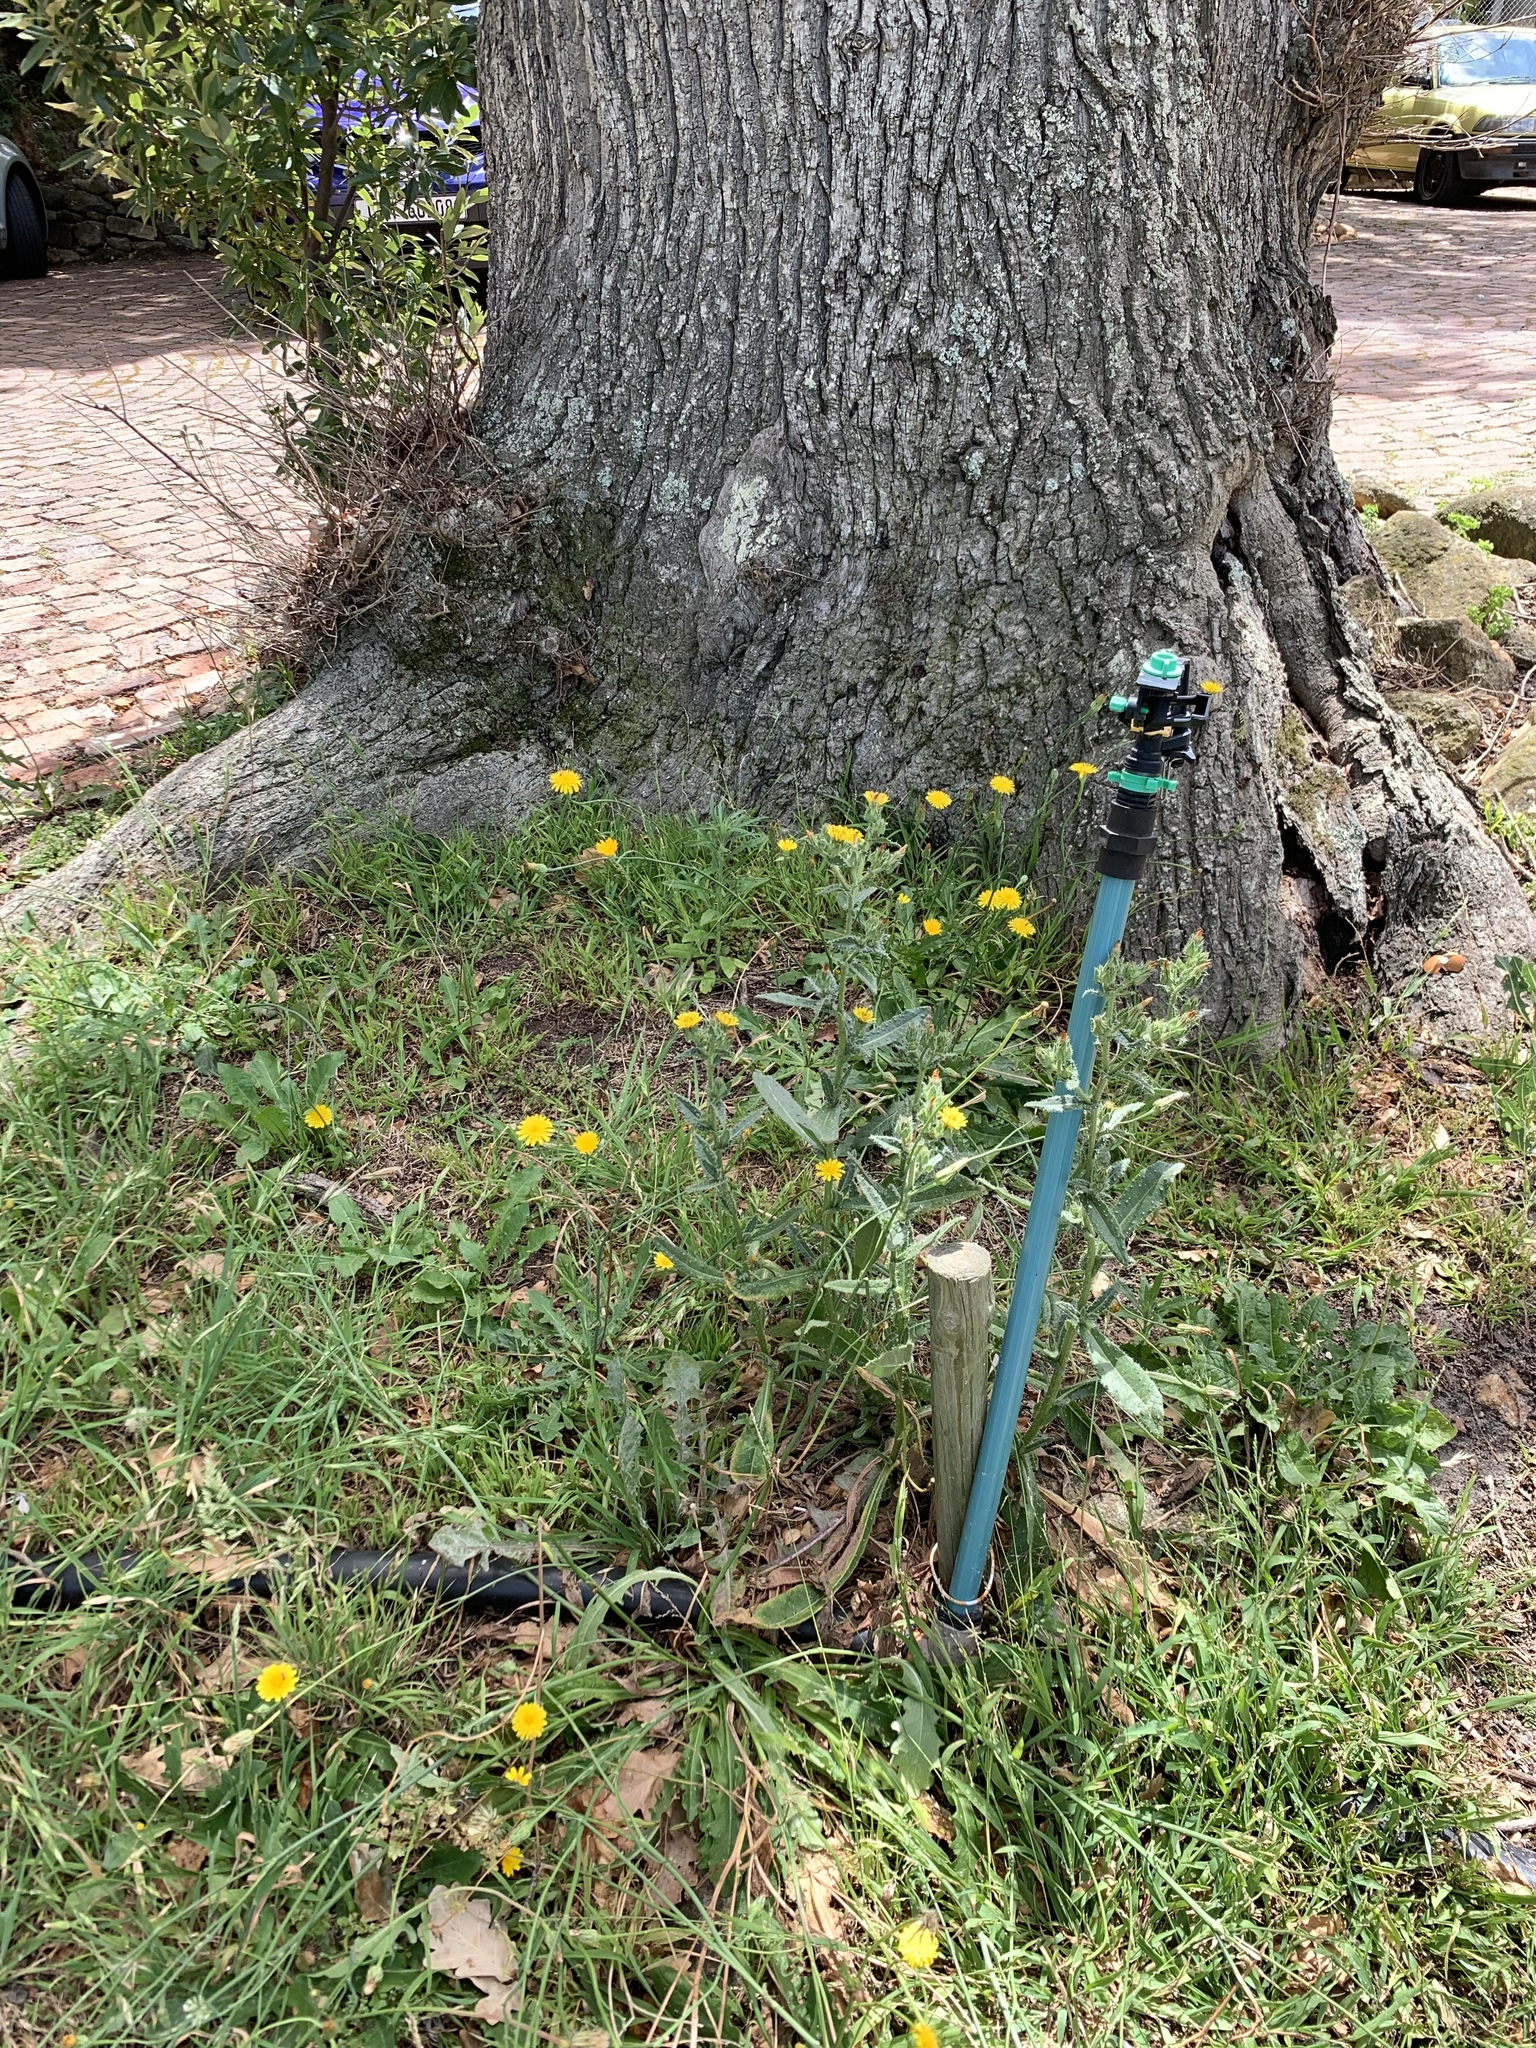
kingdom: Plantae
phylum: Tracheophyta
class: Magnoliopsida
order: Asterales
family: Asteraceae
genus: Helminthotheca
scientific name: Helminthotheca echioides
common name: Ox-tongue
